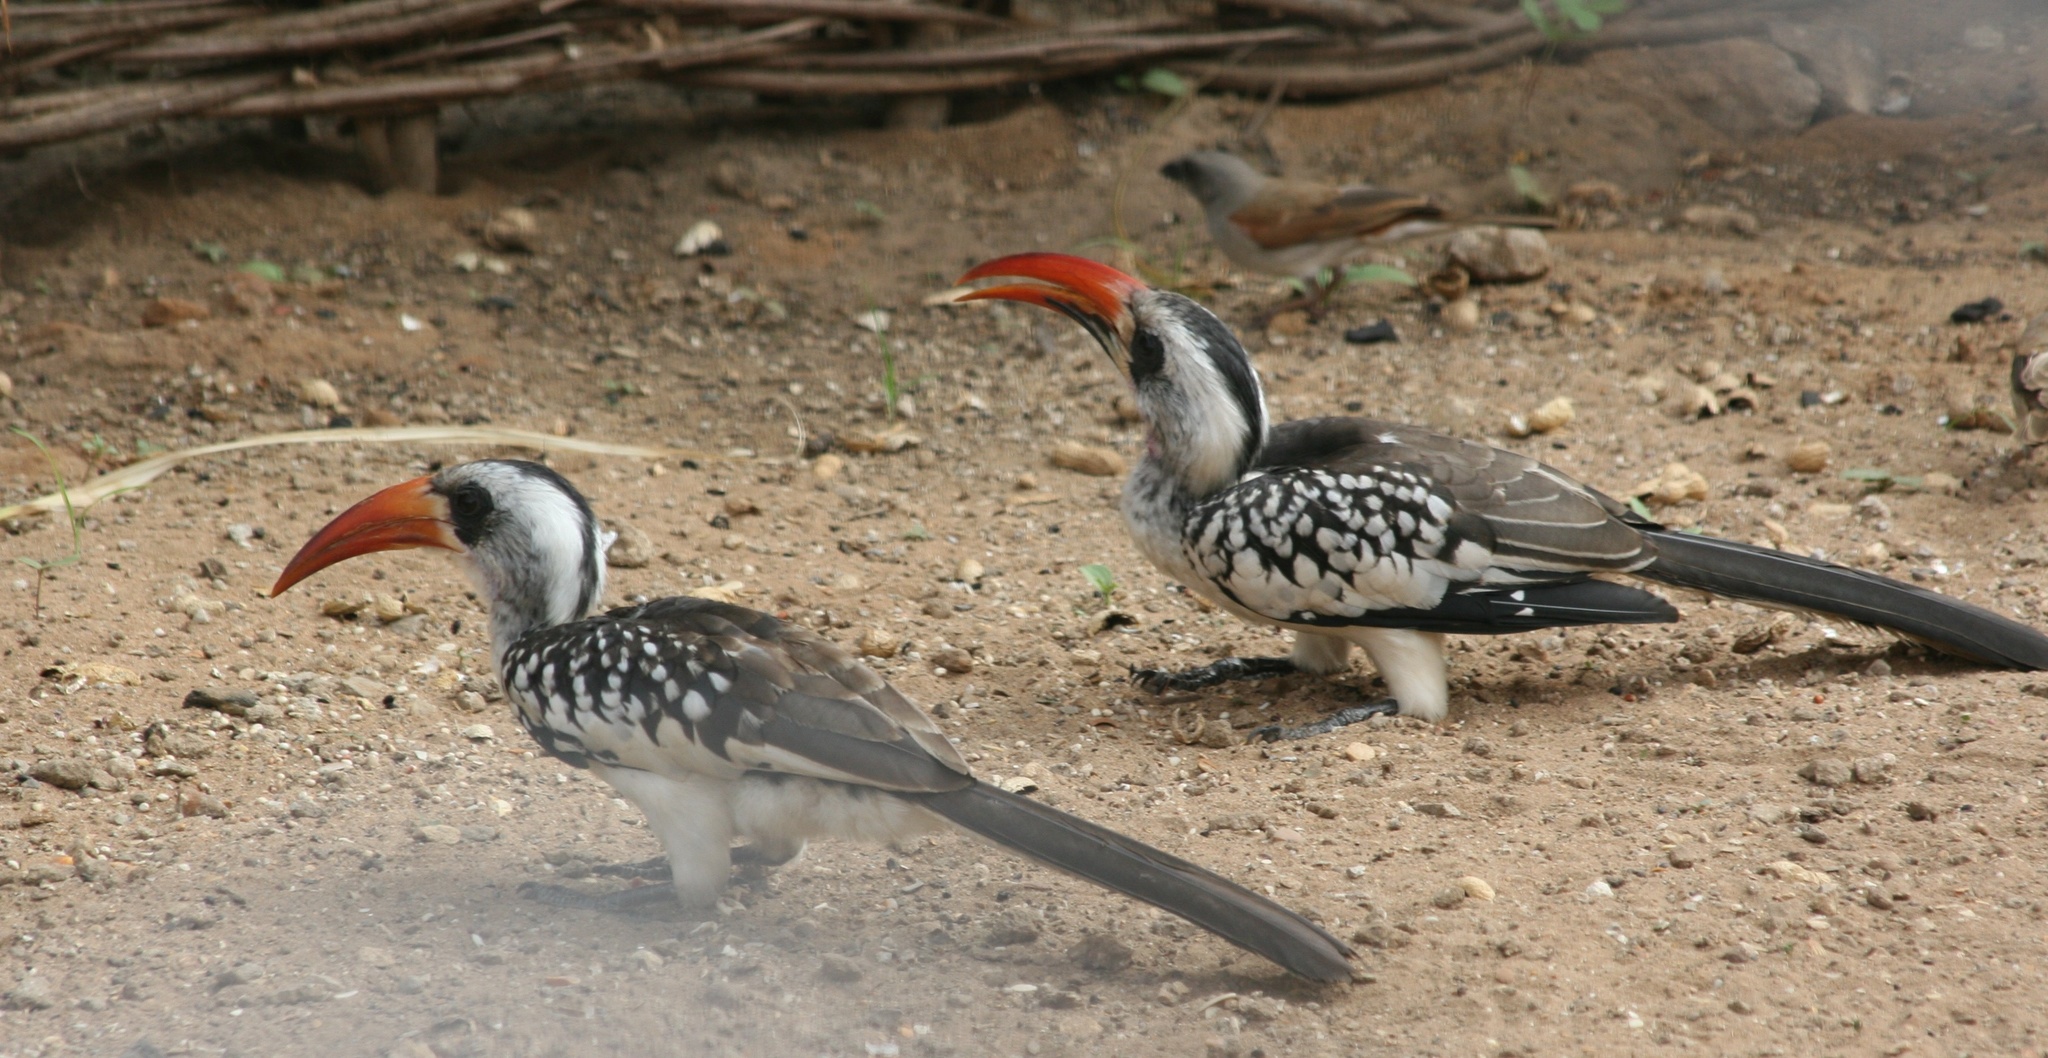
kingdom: Animalia
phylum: Chordata
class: Aves
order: Bucerotiformes
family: Bucerotidae
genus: Tockus
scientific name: Tockus kempi
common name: Western red-billed hornbill
